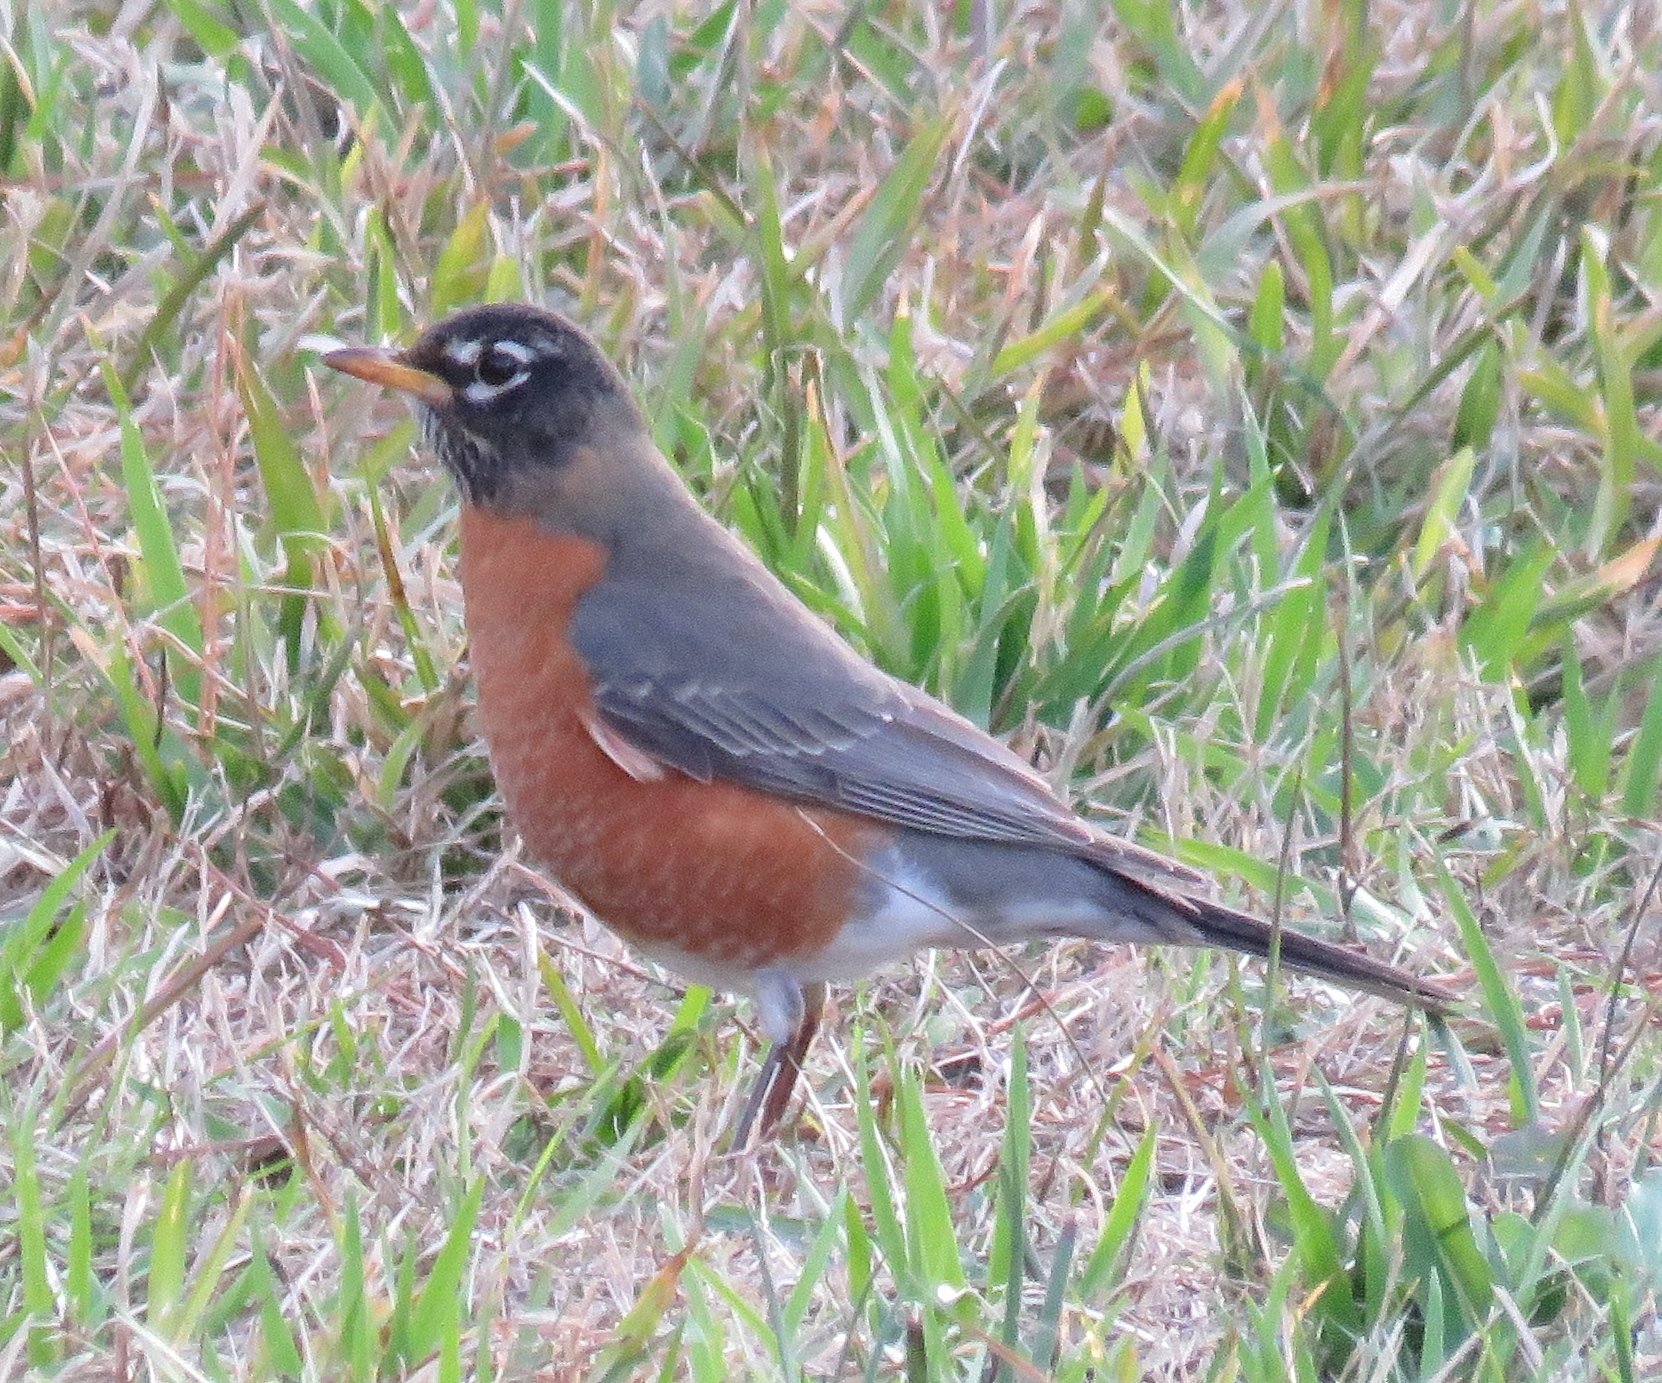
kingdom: Animalia
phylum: Chordata
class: Aves
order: Passeriformes
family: Turdidae
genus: Turdus
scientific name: Turdus migratorius
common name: American robin
